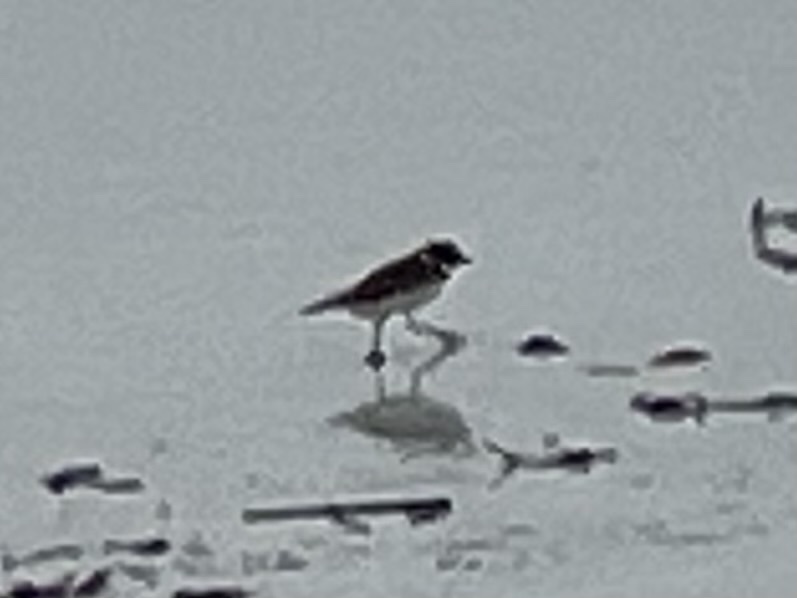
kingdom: Animalia
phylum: Chordata
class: Aves
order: Charadriiformes
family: Charadriidae
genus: Charadrius
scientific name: Charadrius semipalmatus
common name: Semipalmated plover
